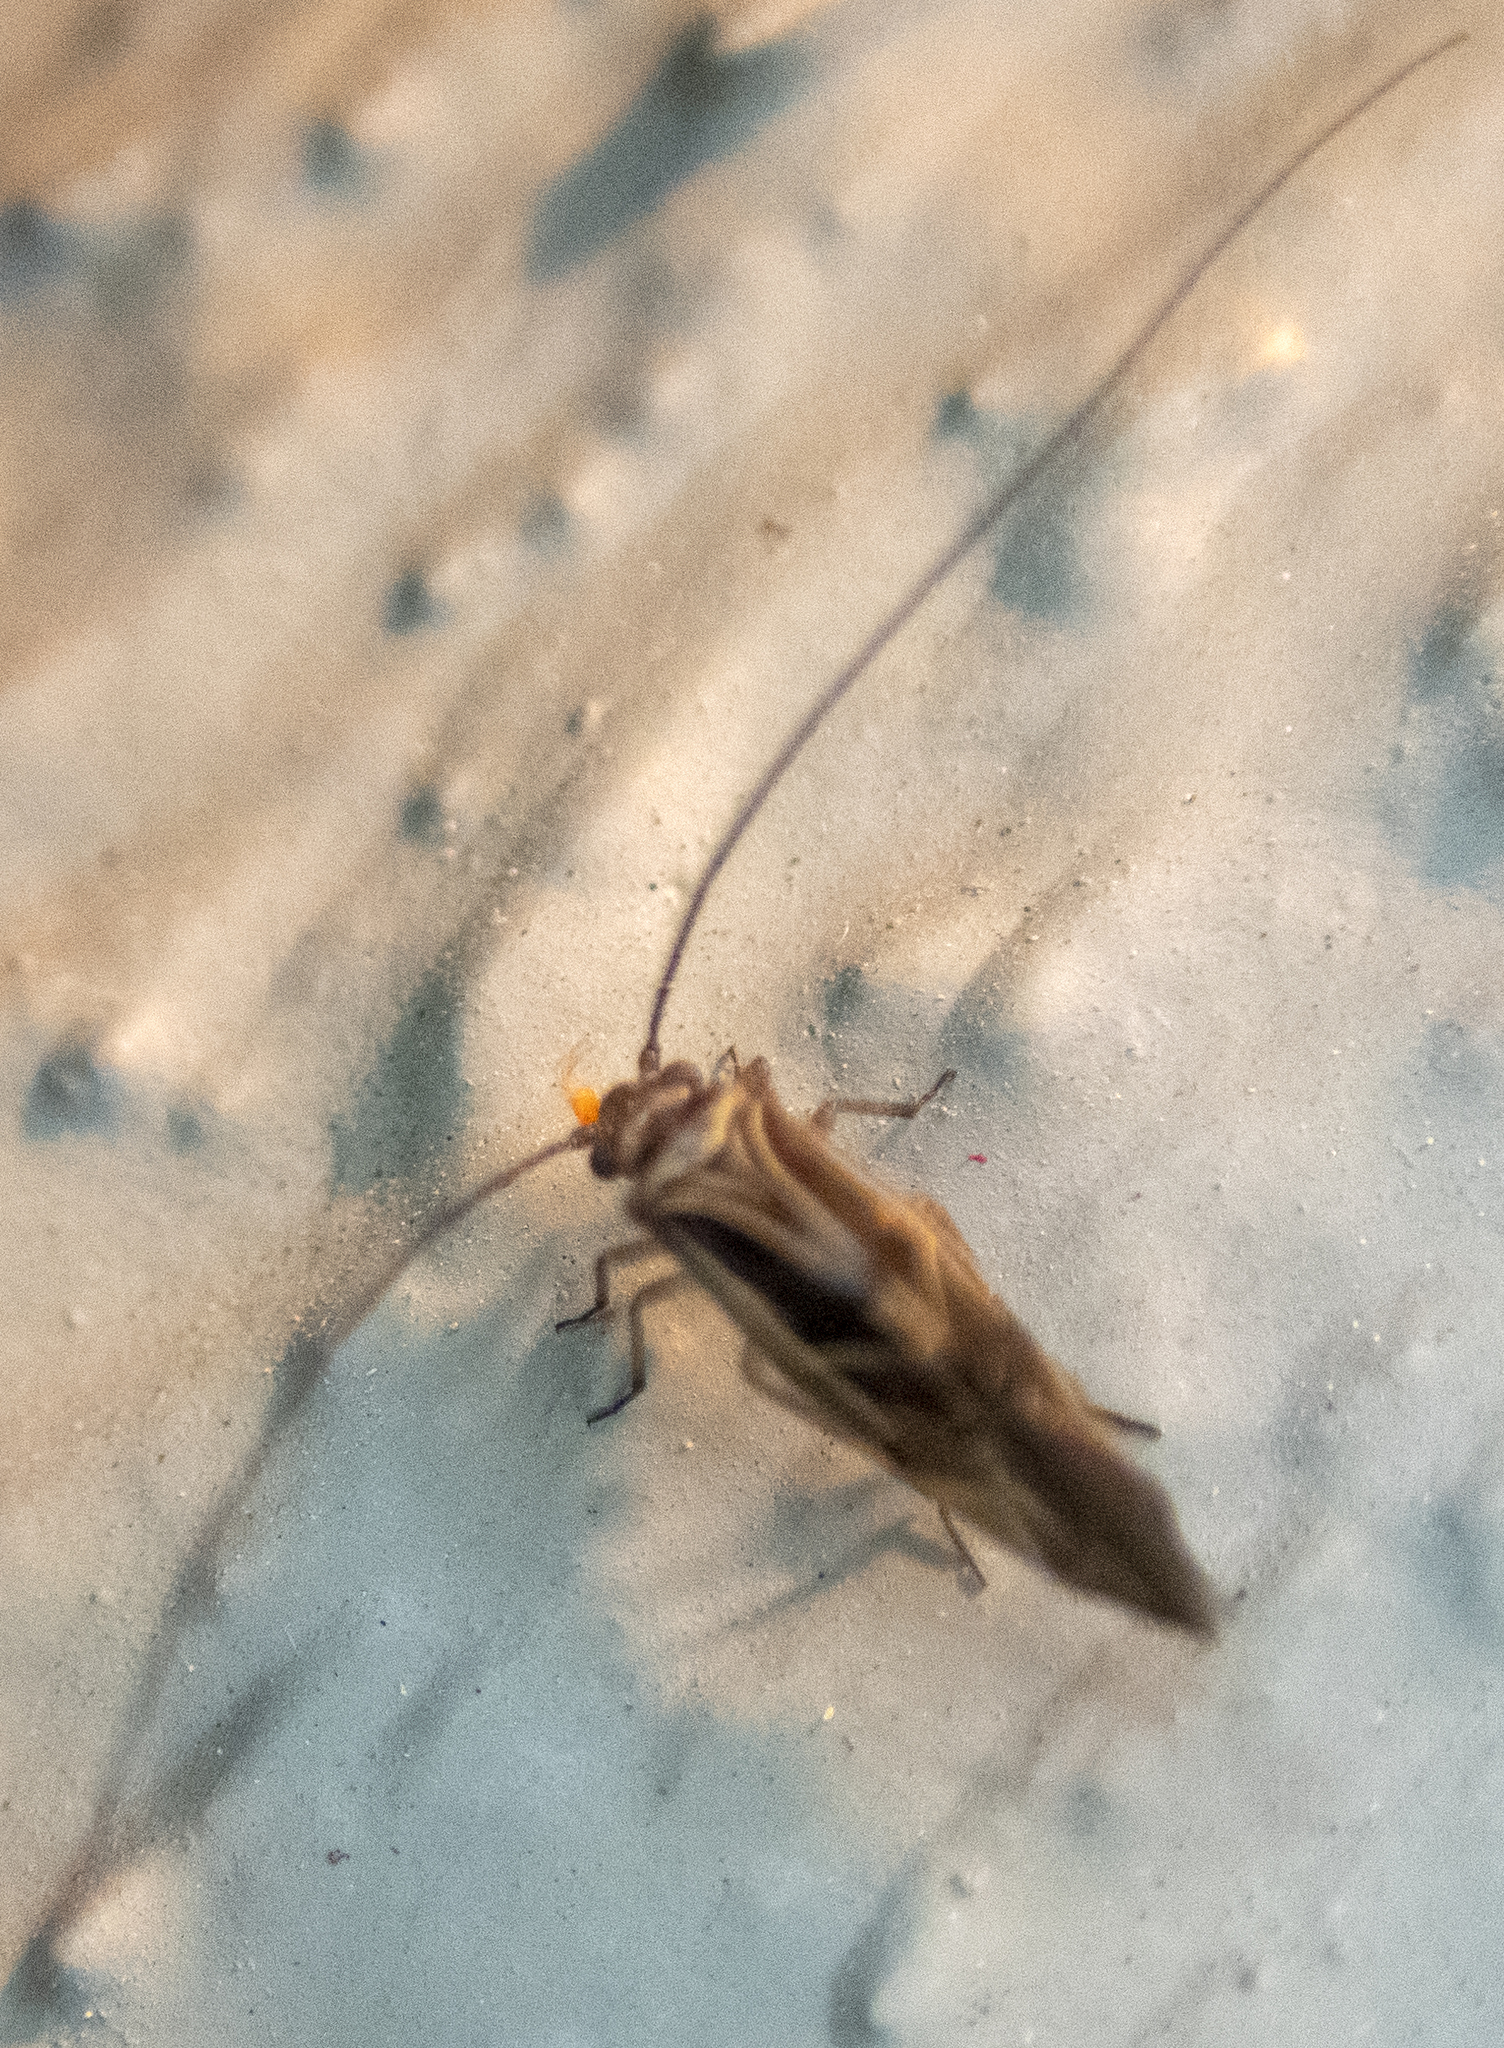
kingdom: Animalia
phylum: Arthropoda
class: Insecta
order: Psocodea
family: Psocidae
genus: Cerastipsocus
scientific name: Cerastipsocus venosus
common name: Tree cattle
